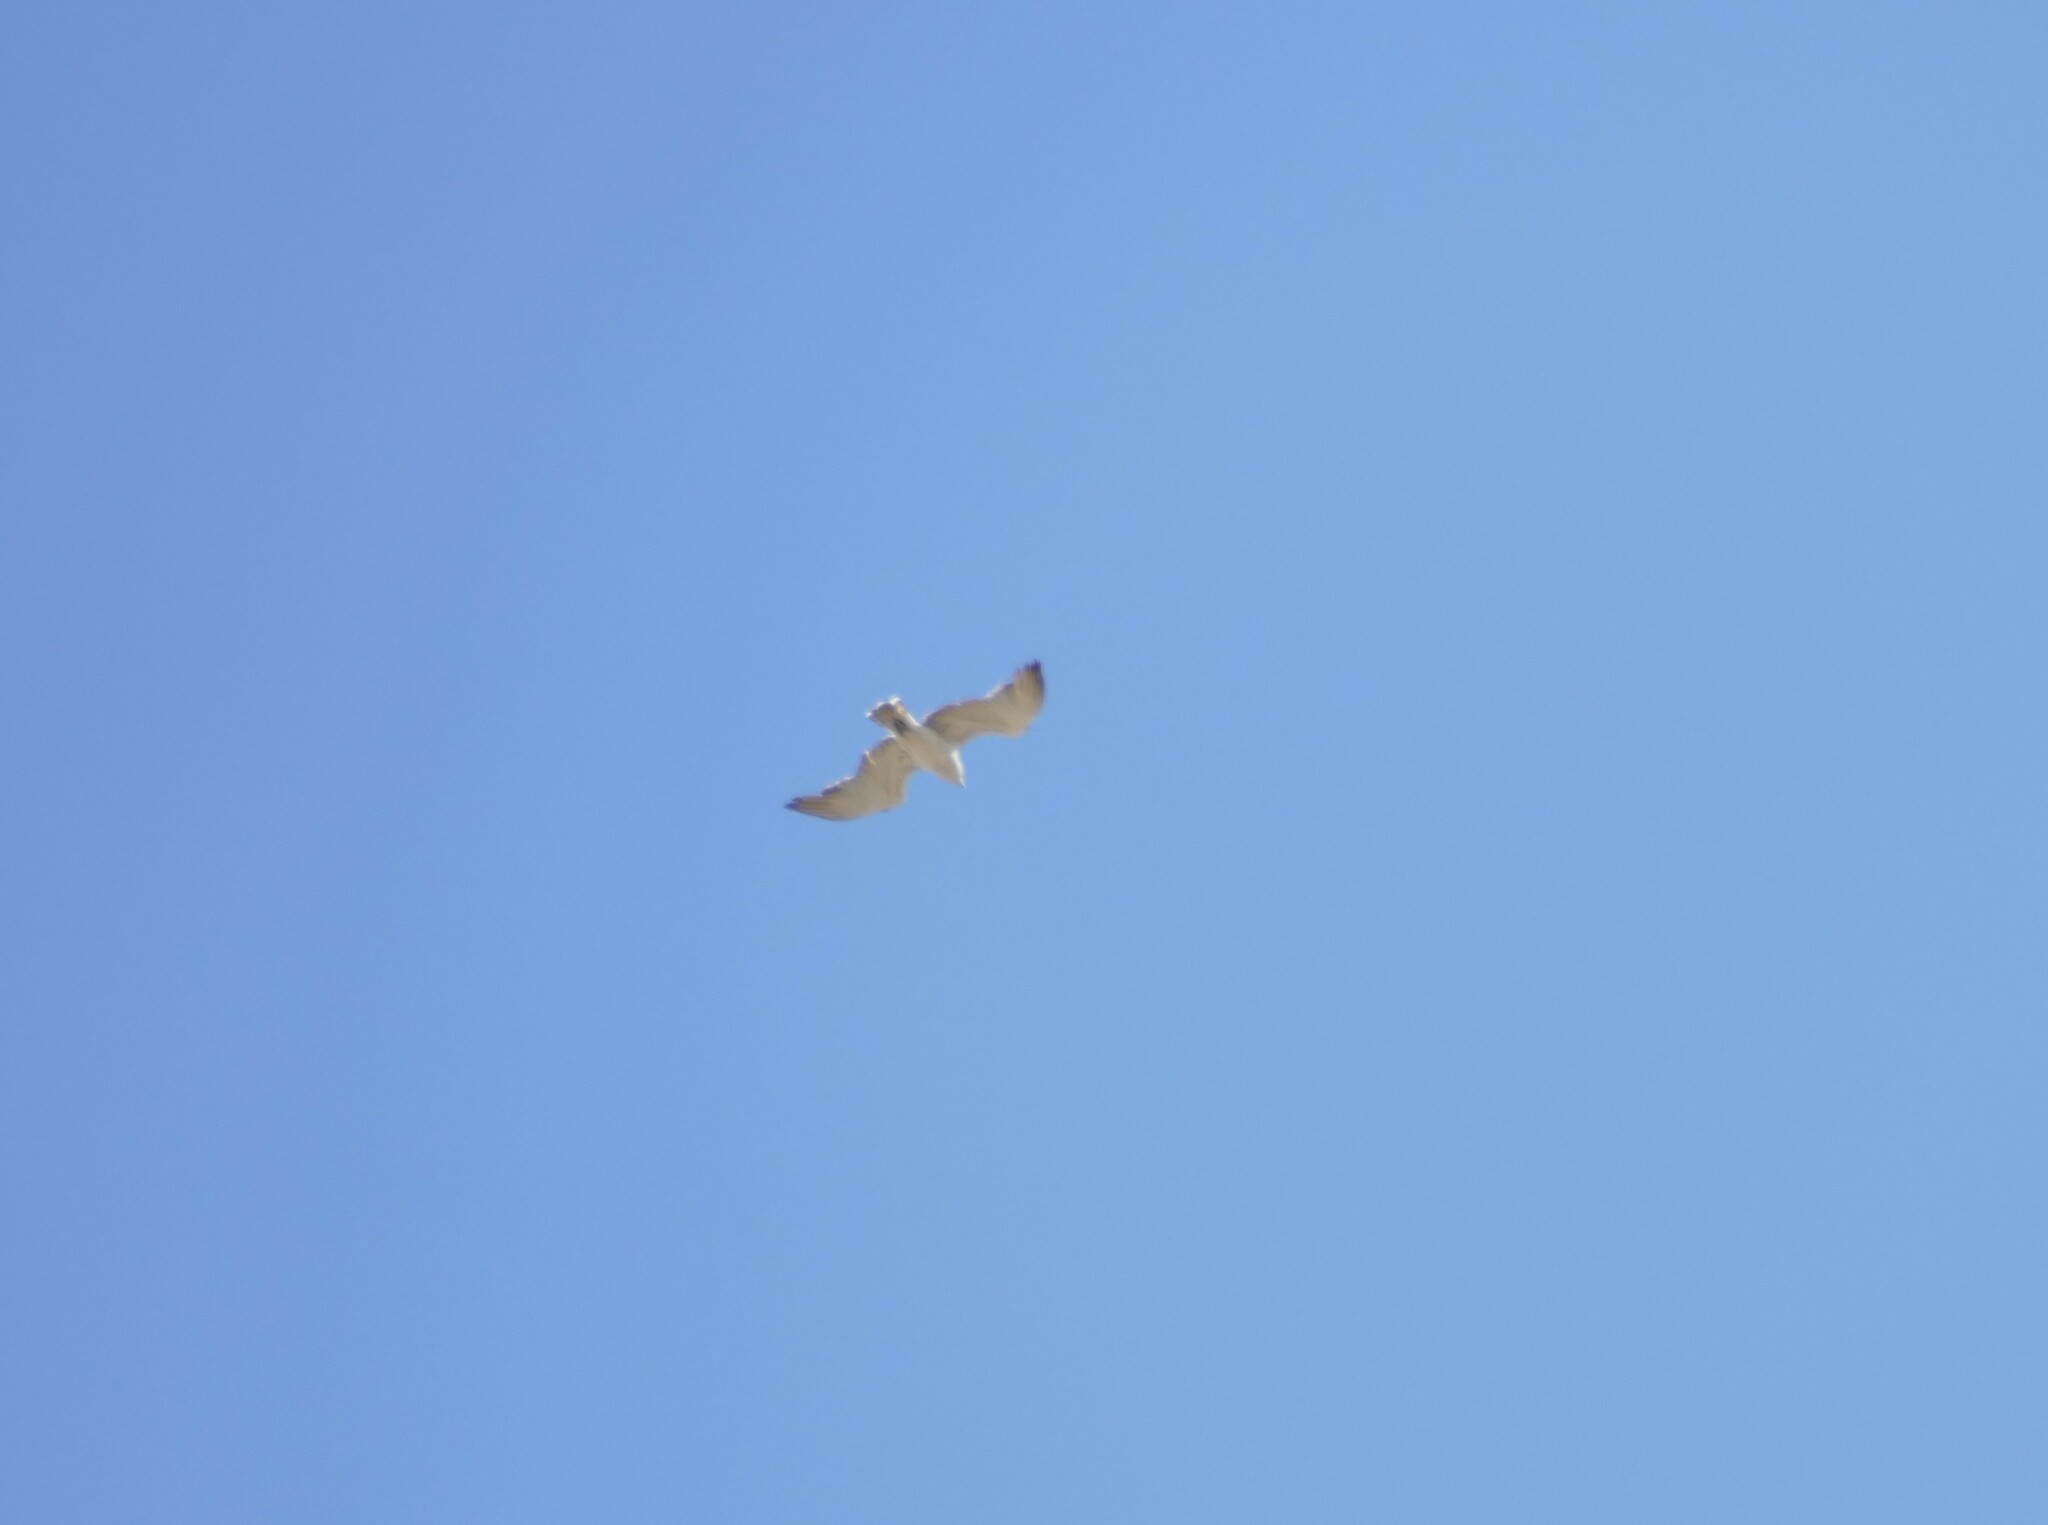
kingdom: Animalia
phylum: Chordata
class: Aves
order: Accipitriformes
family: Accipitridae
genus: Circaetus
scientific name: Circaetus gallicus
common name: Short-toed snake eagle
